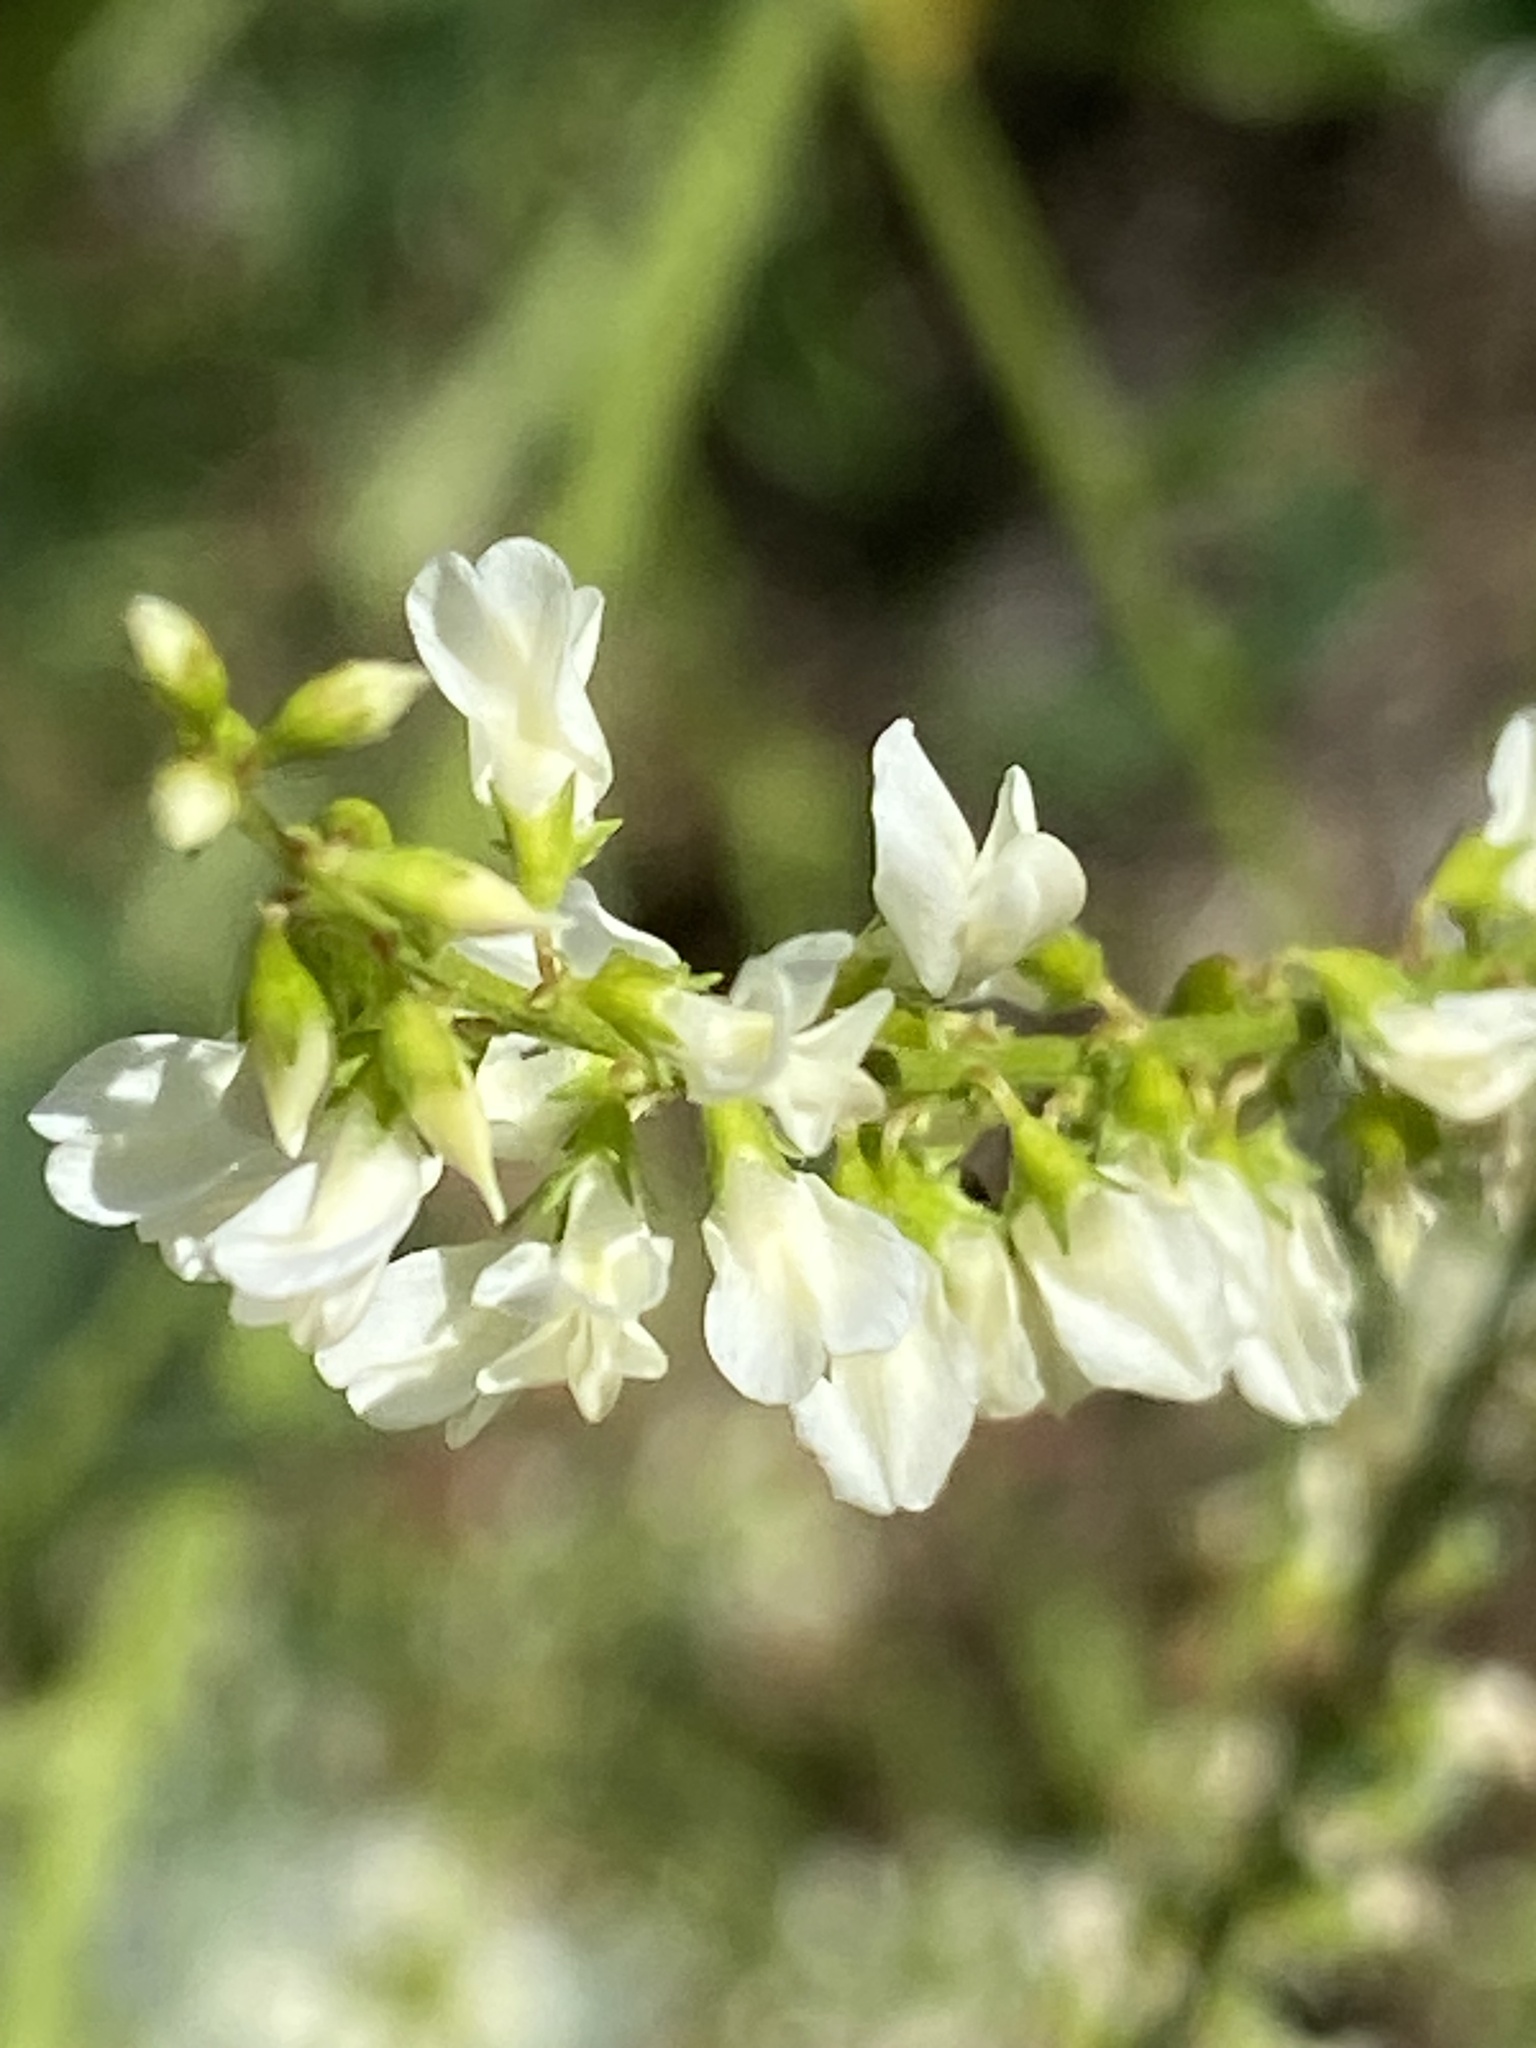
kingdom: Plantae
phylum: Tracheophyta
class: Magnoliopsida
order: Fabales
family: Fabaceae
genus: Melilotus
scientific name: Melilotus albus
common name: White melilot
